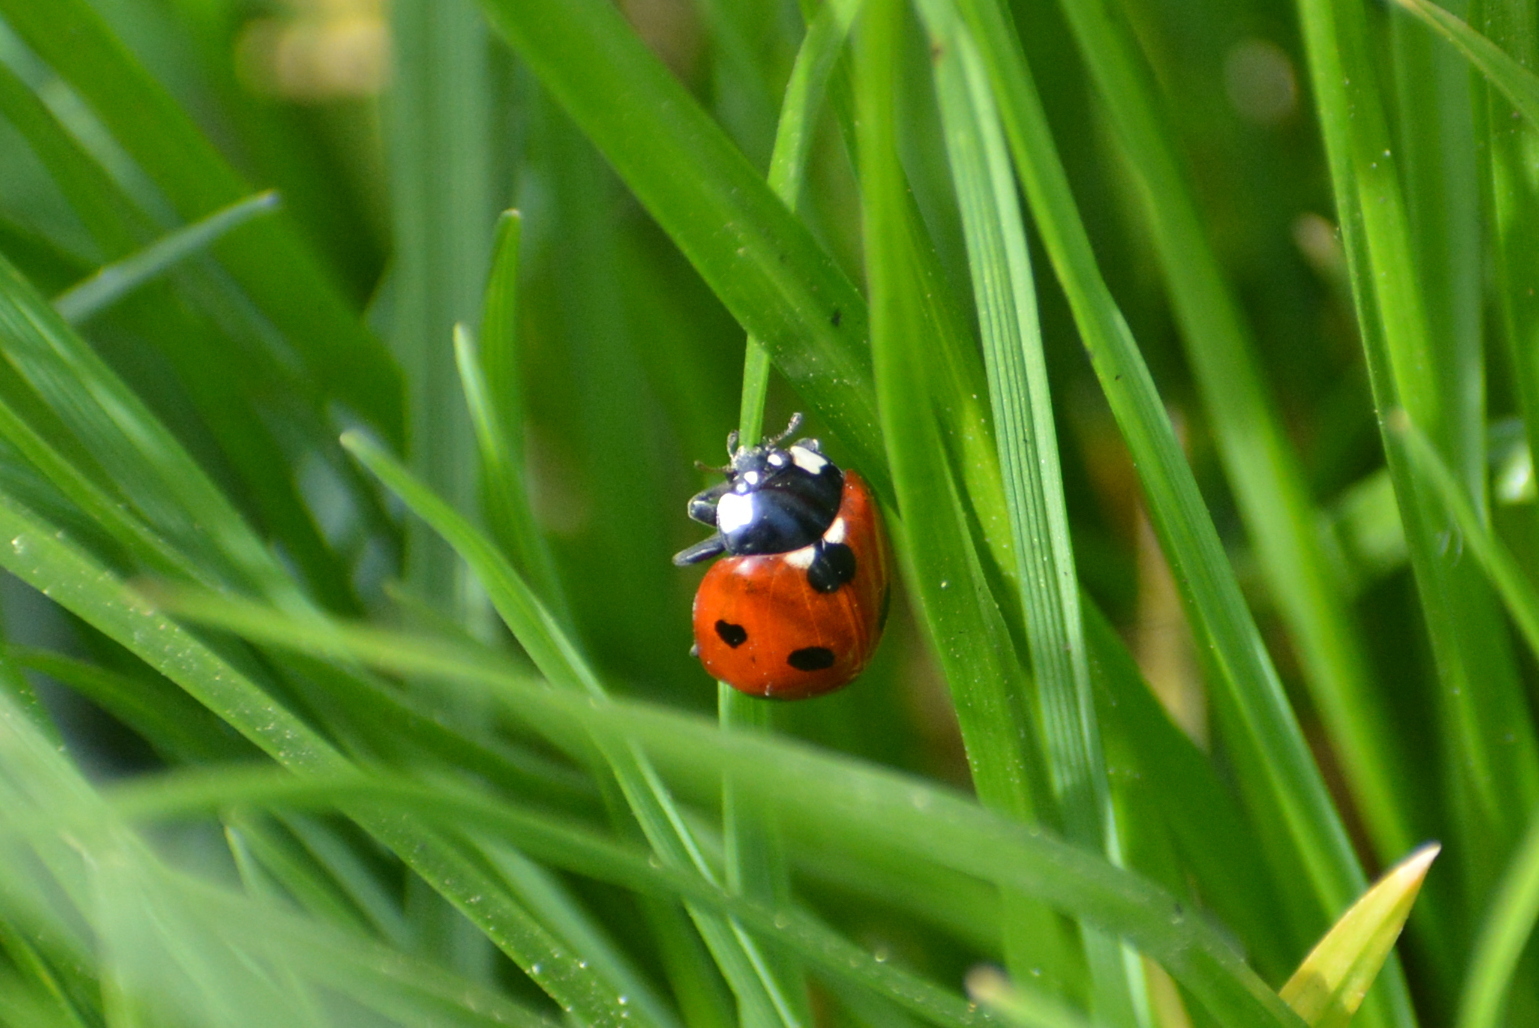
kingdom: Animalia
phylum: Arthropoda
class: Insecta
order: Coleoptera
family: Coccinellidae
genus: Coccinella
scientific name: Coccinella septempunctata
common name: Sevenspotted lady beetle
